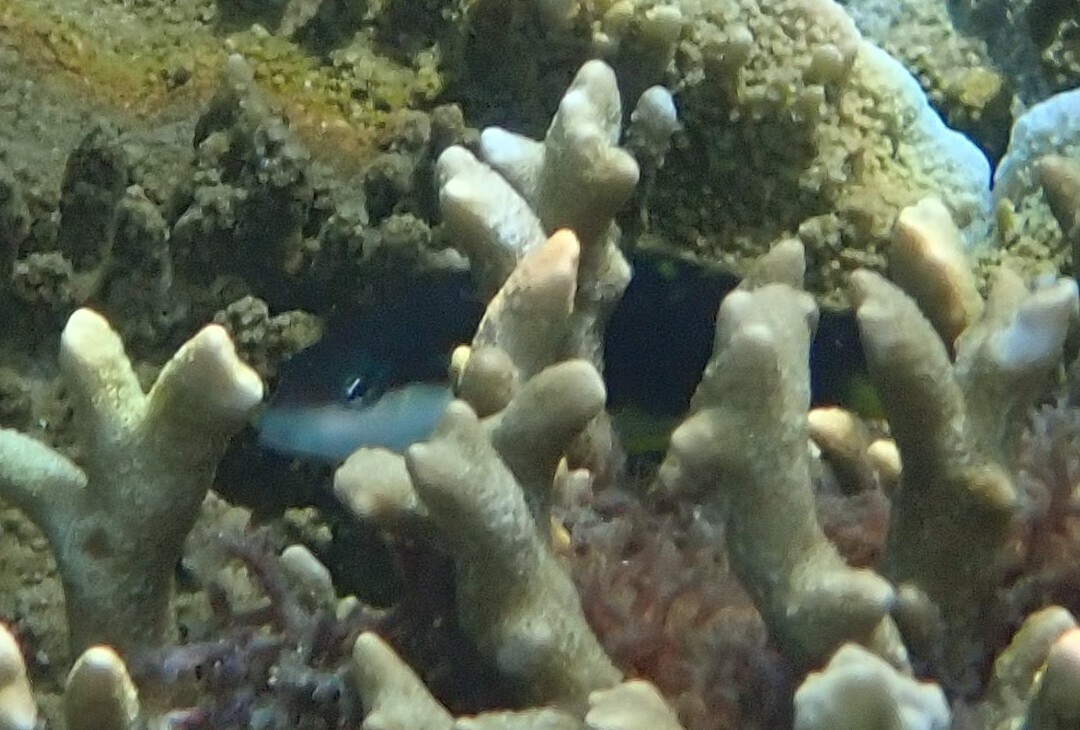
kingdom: Animalia
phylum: Chordata
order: Perciformes
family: Labridae
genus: Thalassoma
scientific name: Thalassoma jansenii
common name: Jansen's wrasse
